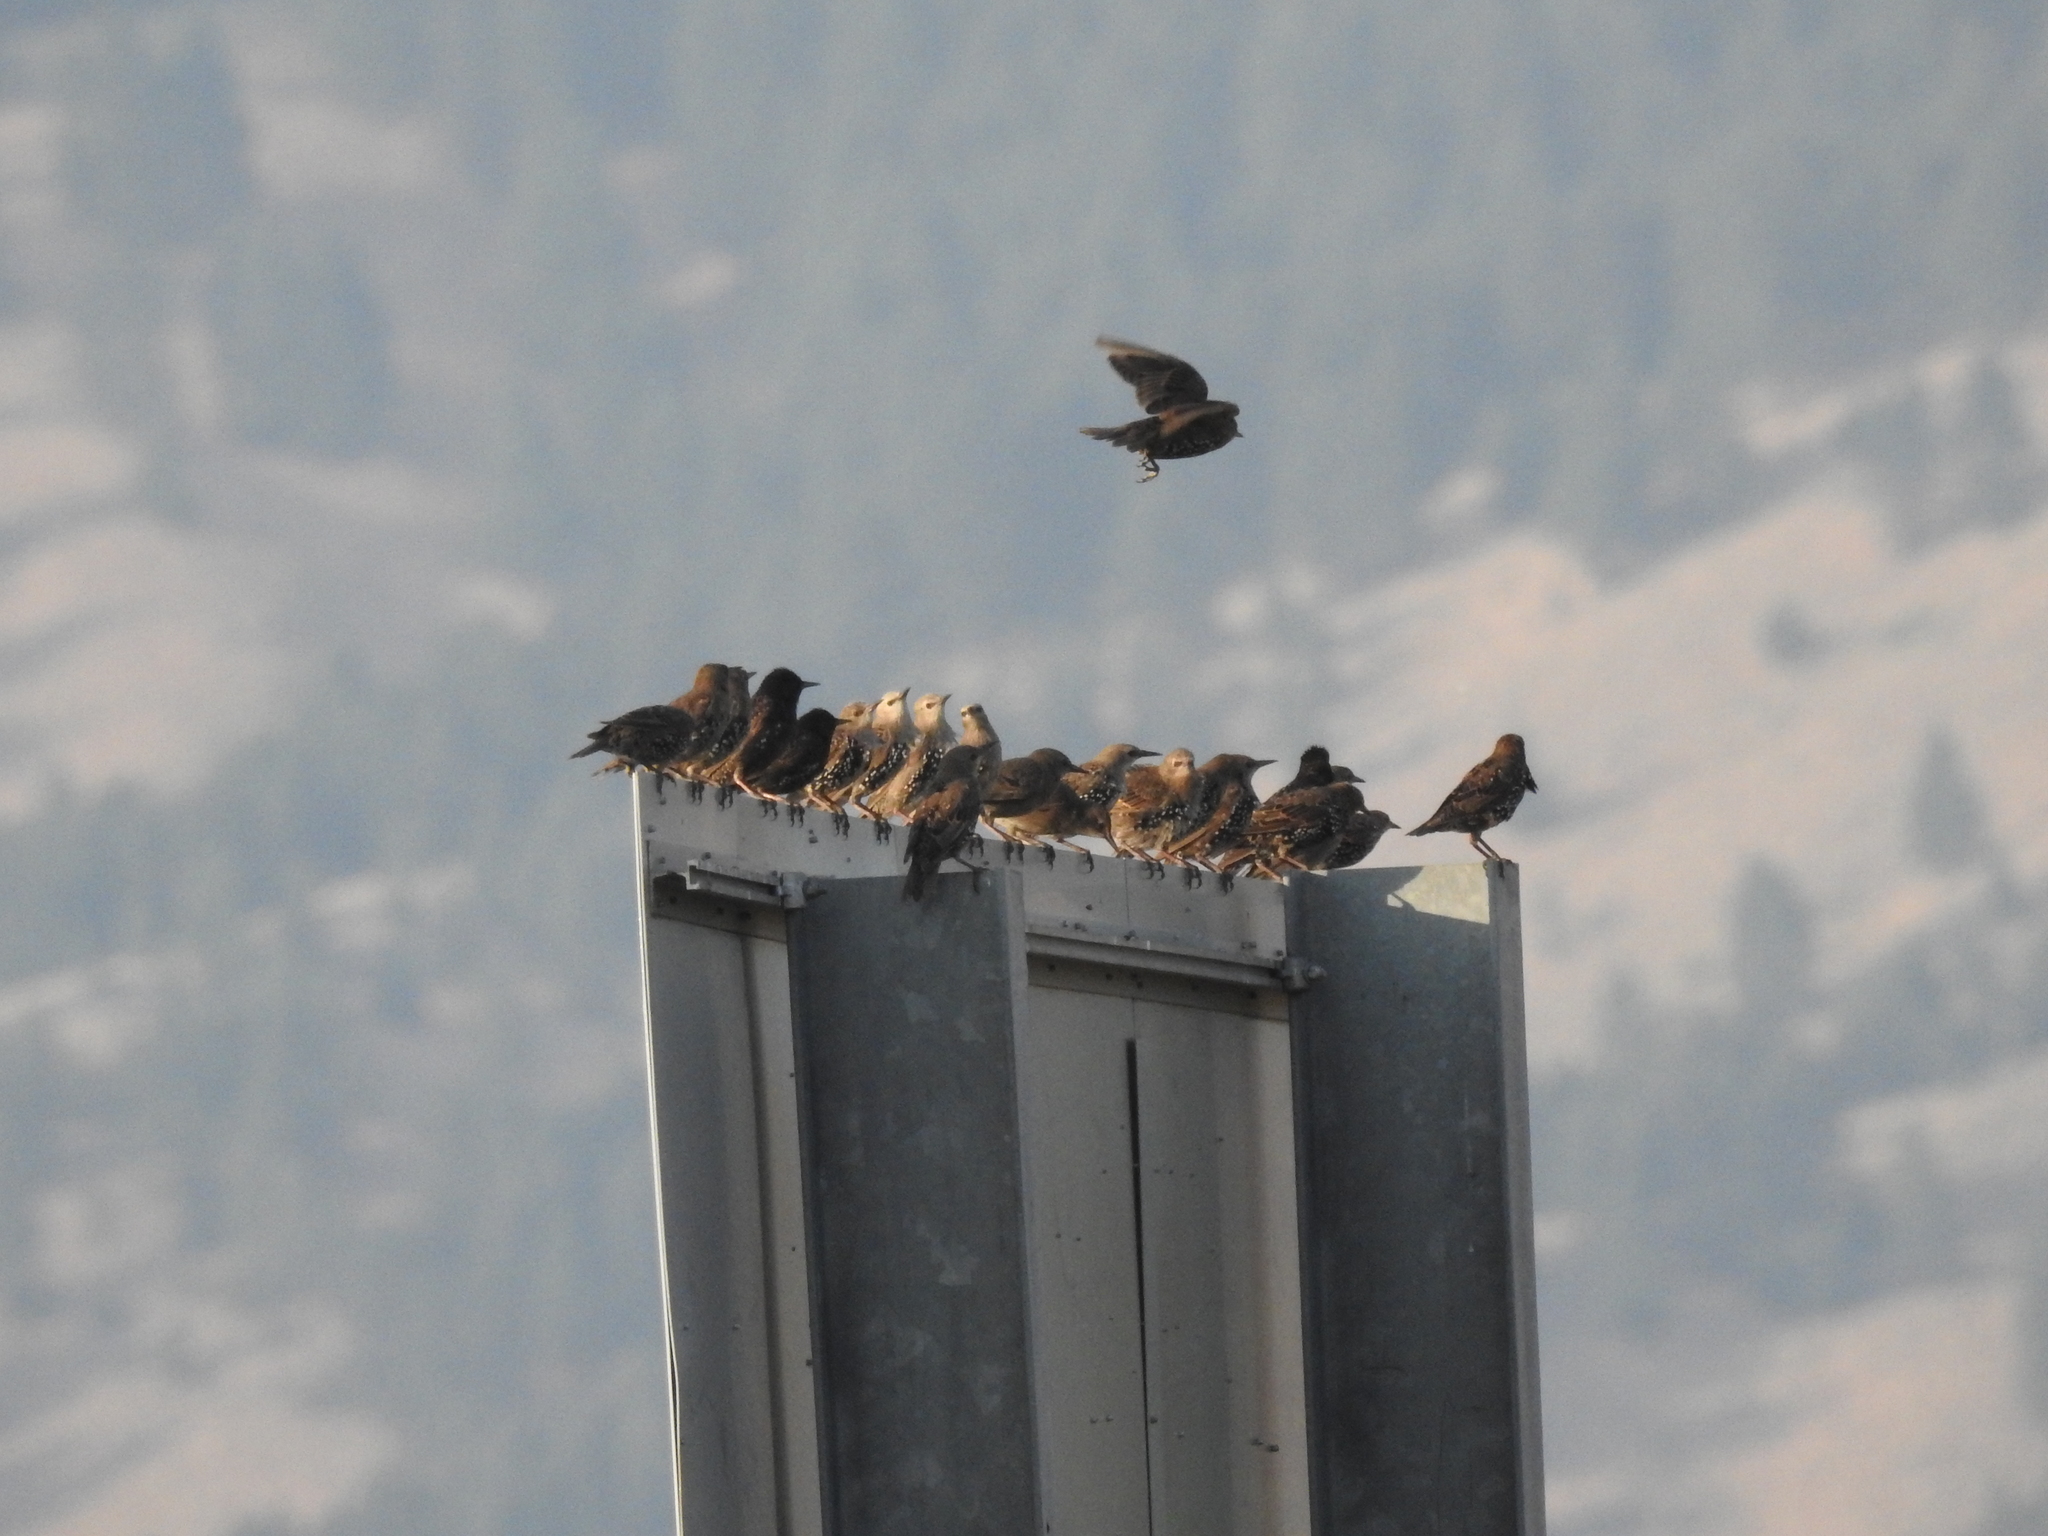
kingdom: Animalia
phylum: Chordata
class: Aves
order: Passeriformes
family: Sturnidae
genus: Sturnus
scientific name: Sturnus vulgaris
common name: Common starling
